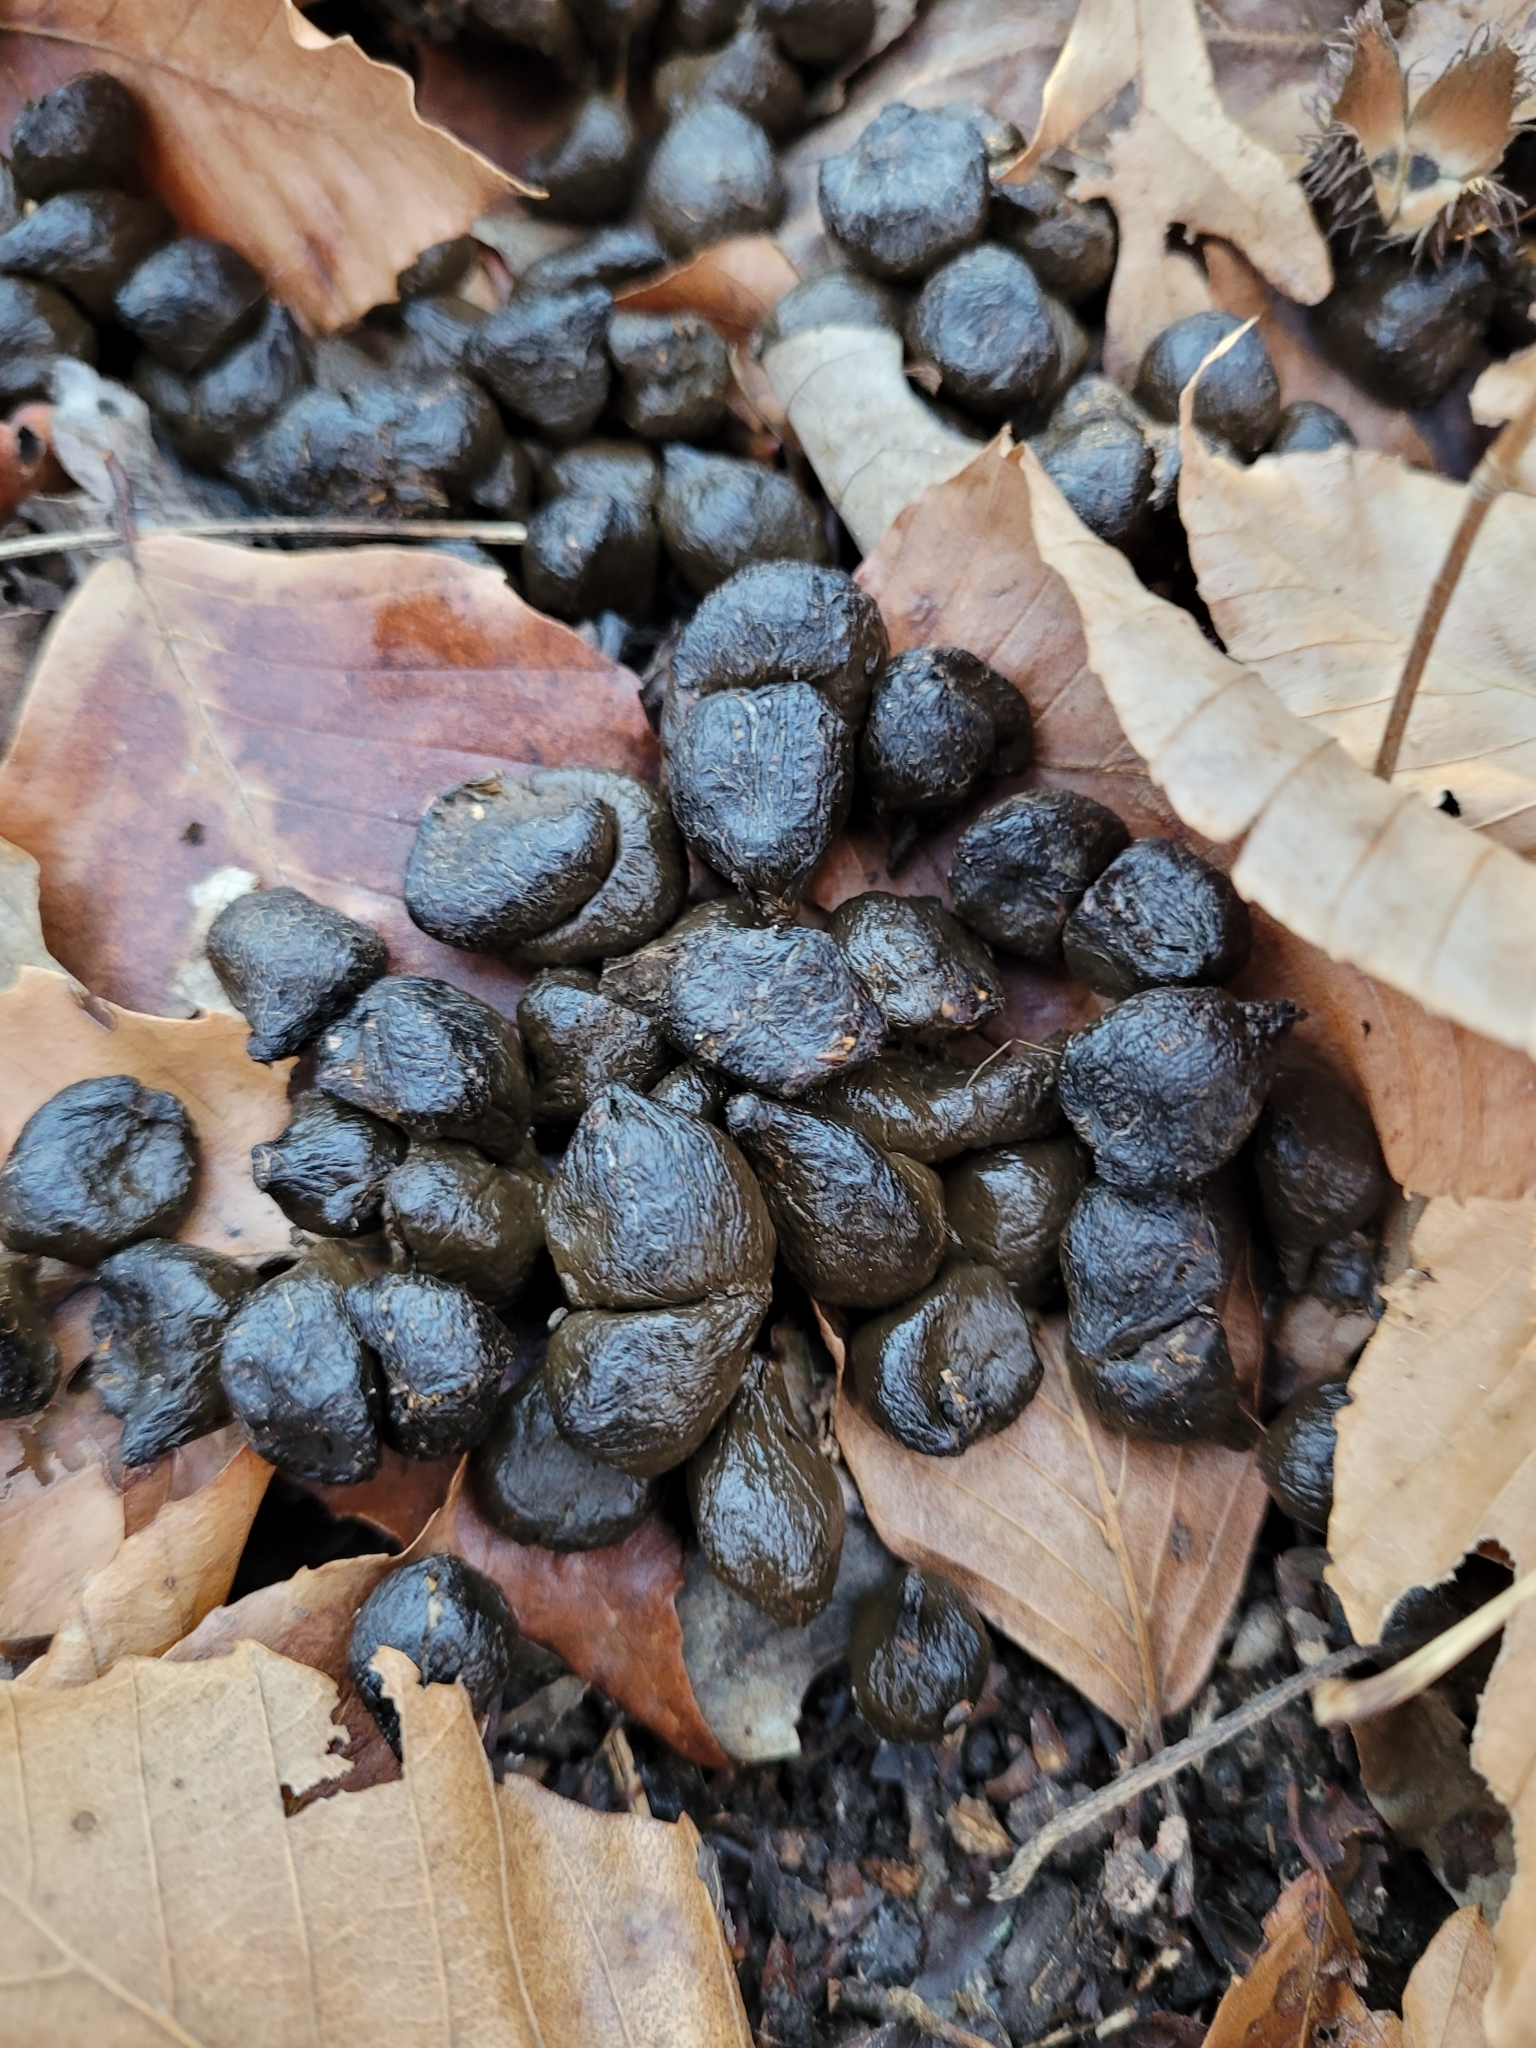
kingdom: Animalia
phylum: Chordata
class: Mammalia
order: Artiodactyla
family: Cervidae
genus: Odocoileus
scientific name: Odocoileus virginianus
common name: White-tailed deer
